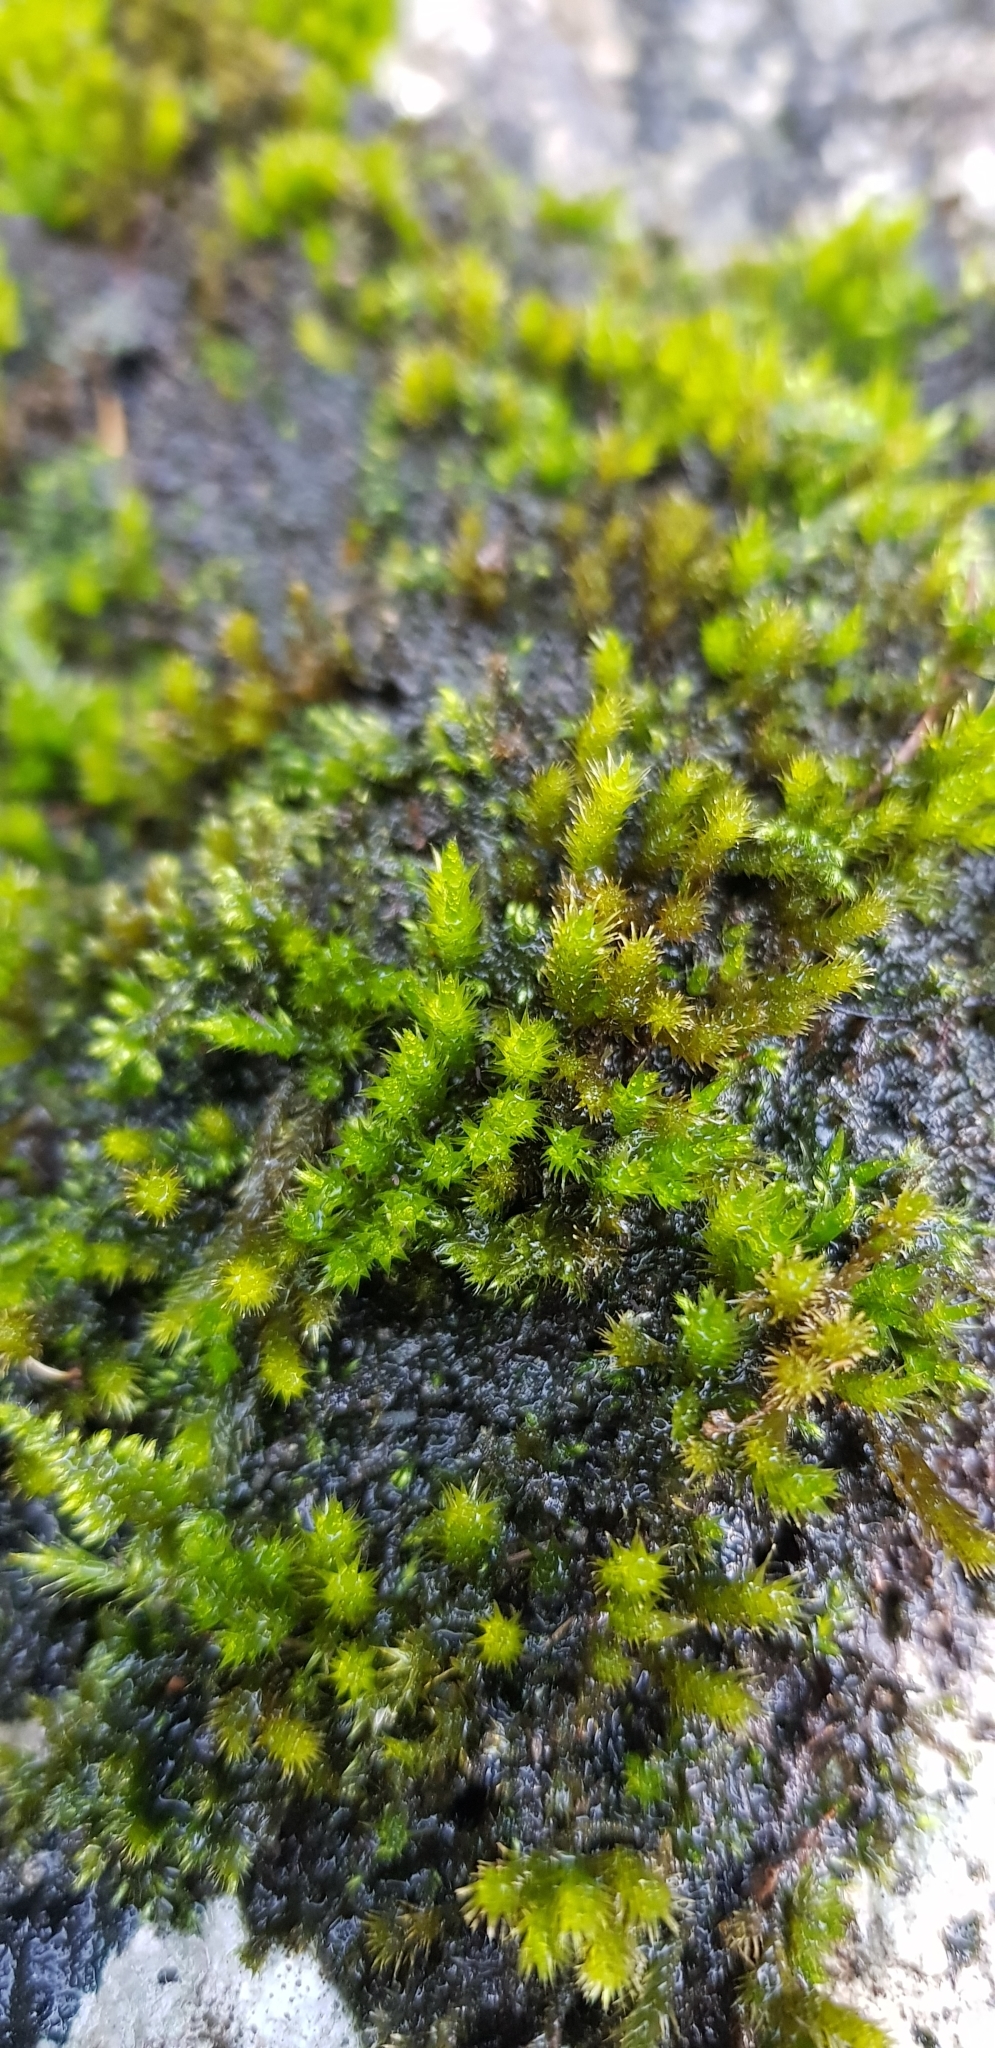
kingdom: Plantae
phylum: Bryophyta
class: Bryopsida
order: Hypnales
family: Brachytheciaceae
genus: Homalothecium
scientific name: Homalothecium sericeum
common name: Silky wall feather-moss
